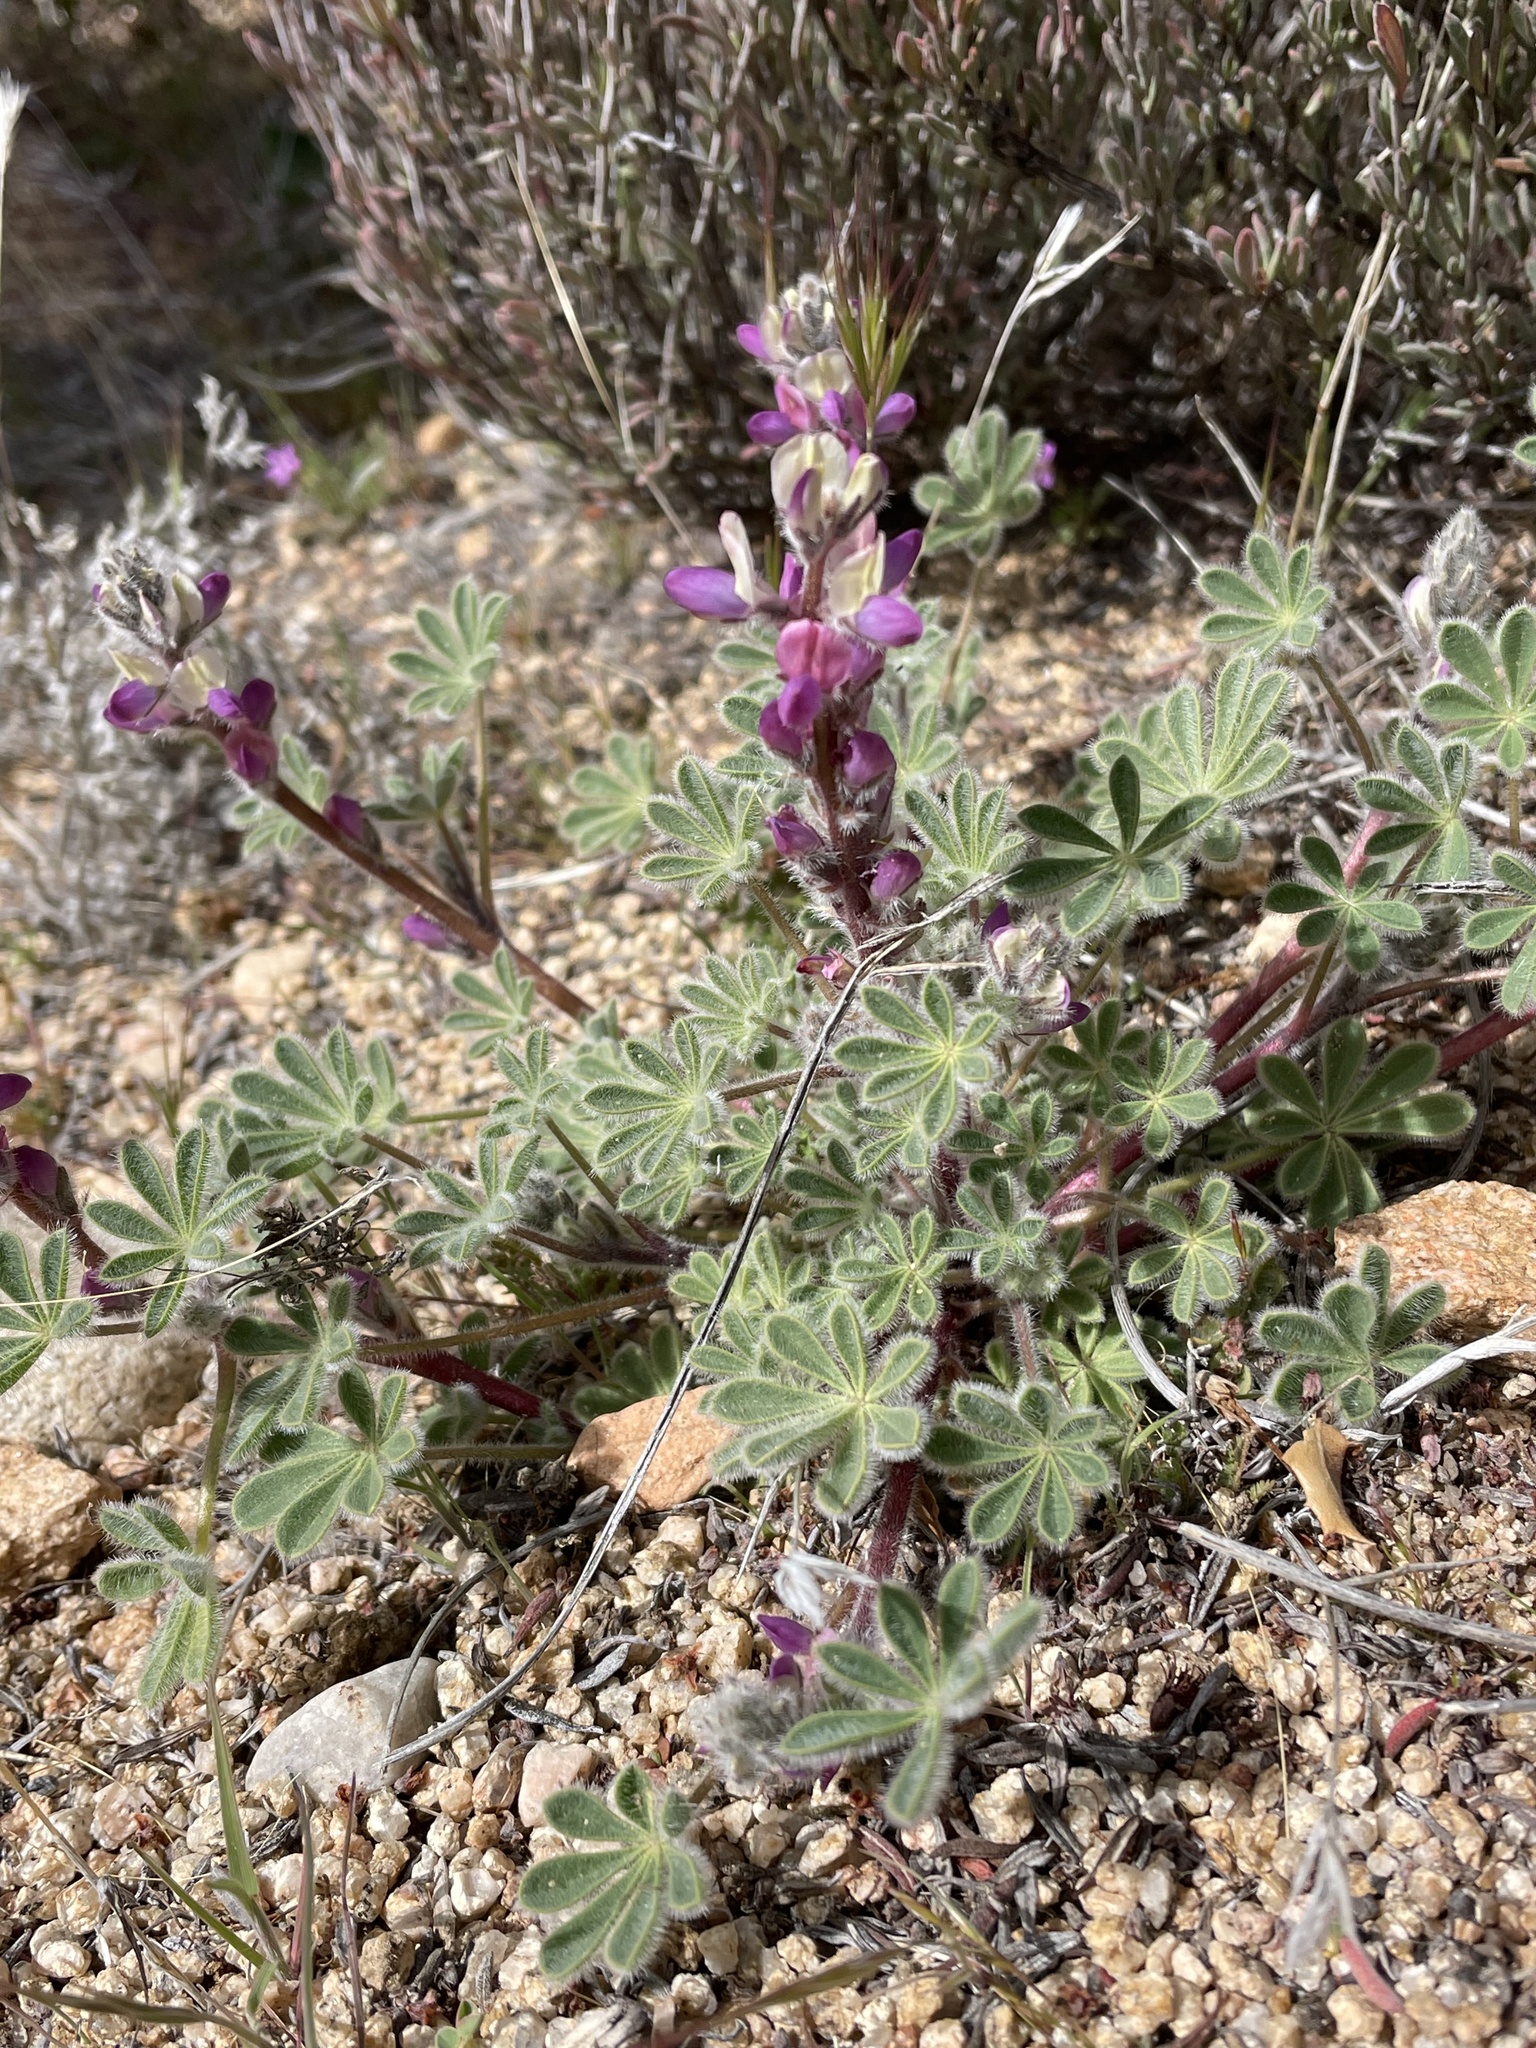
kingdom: Plantae
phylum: Tracheophyta
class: Magnoliopsida
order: Fabales
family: Fabaceae
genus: Lupinus
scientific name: Lupinus concinnus
